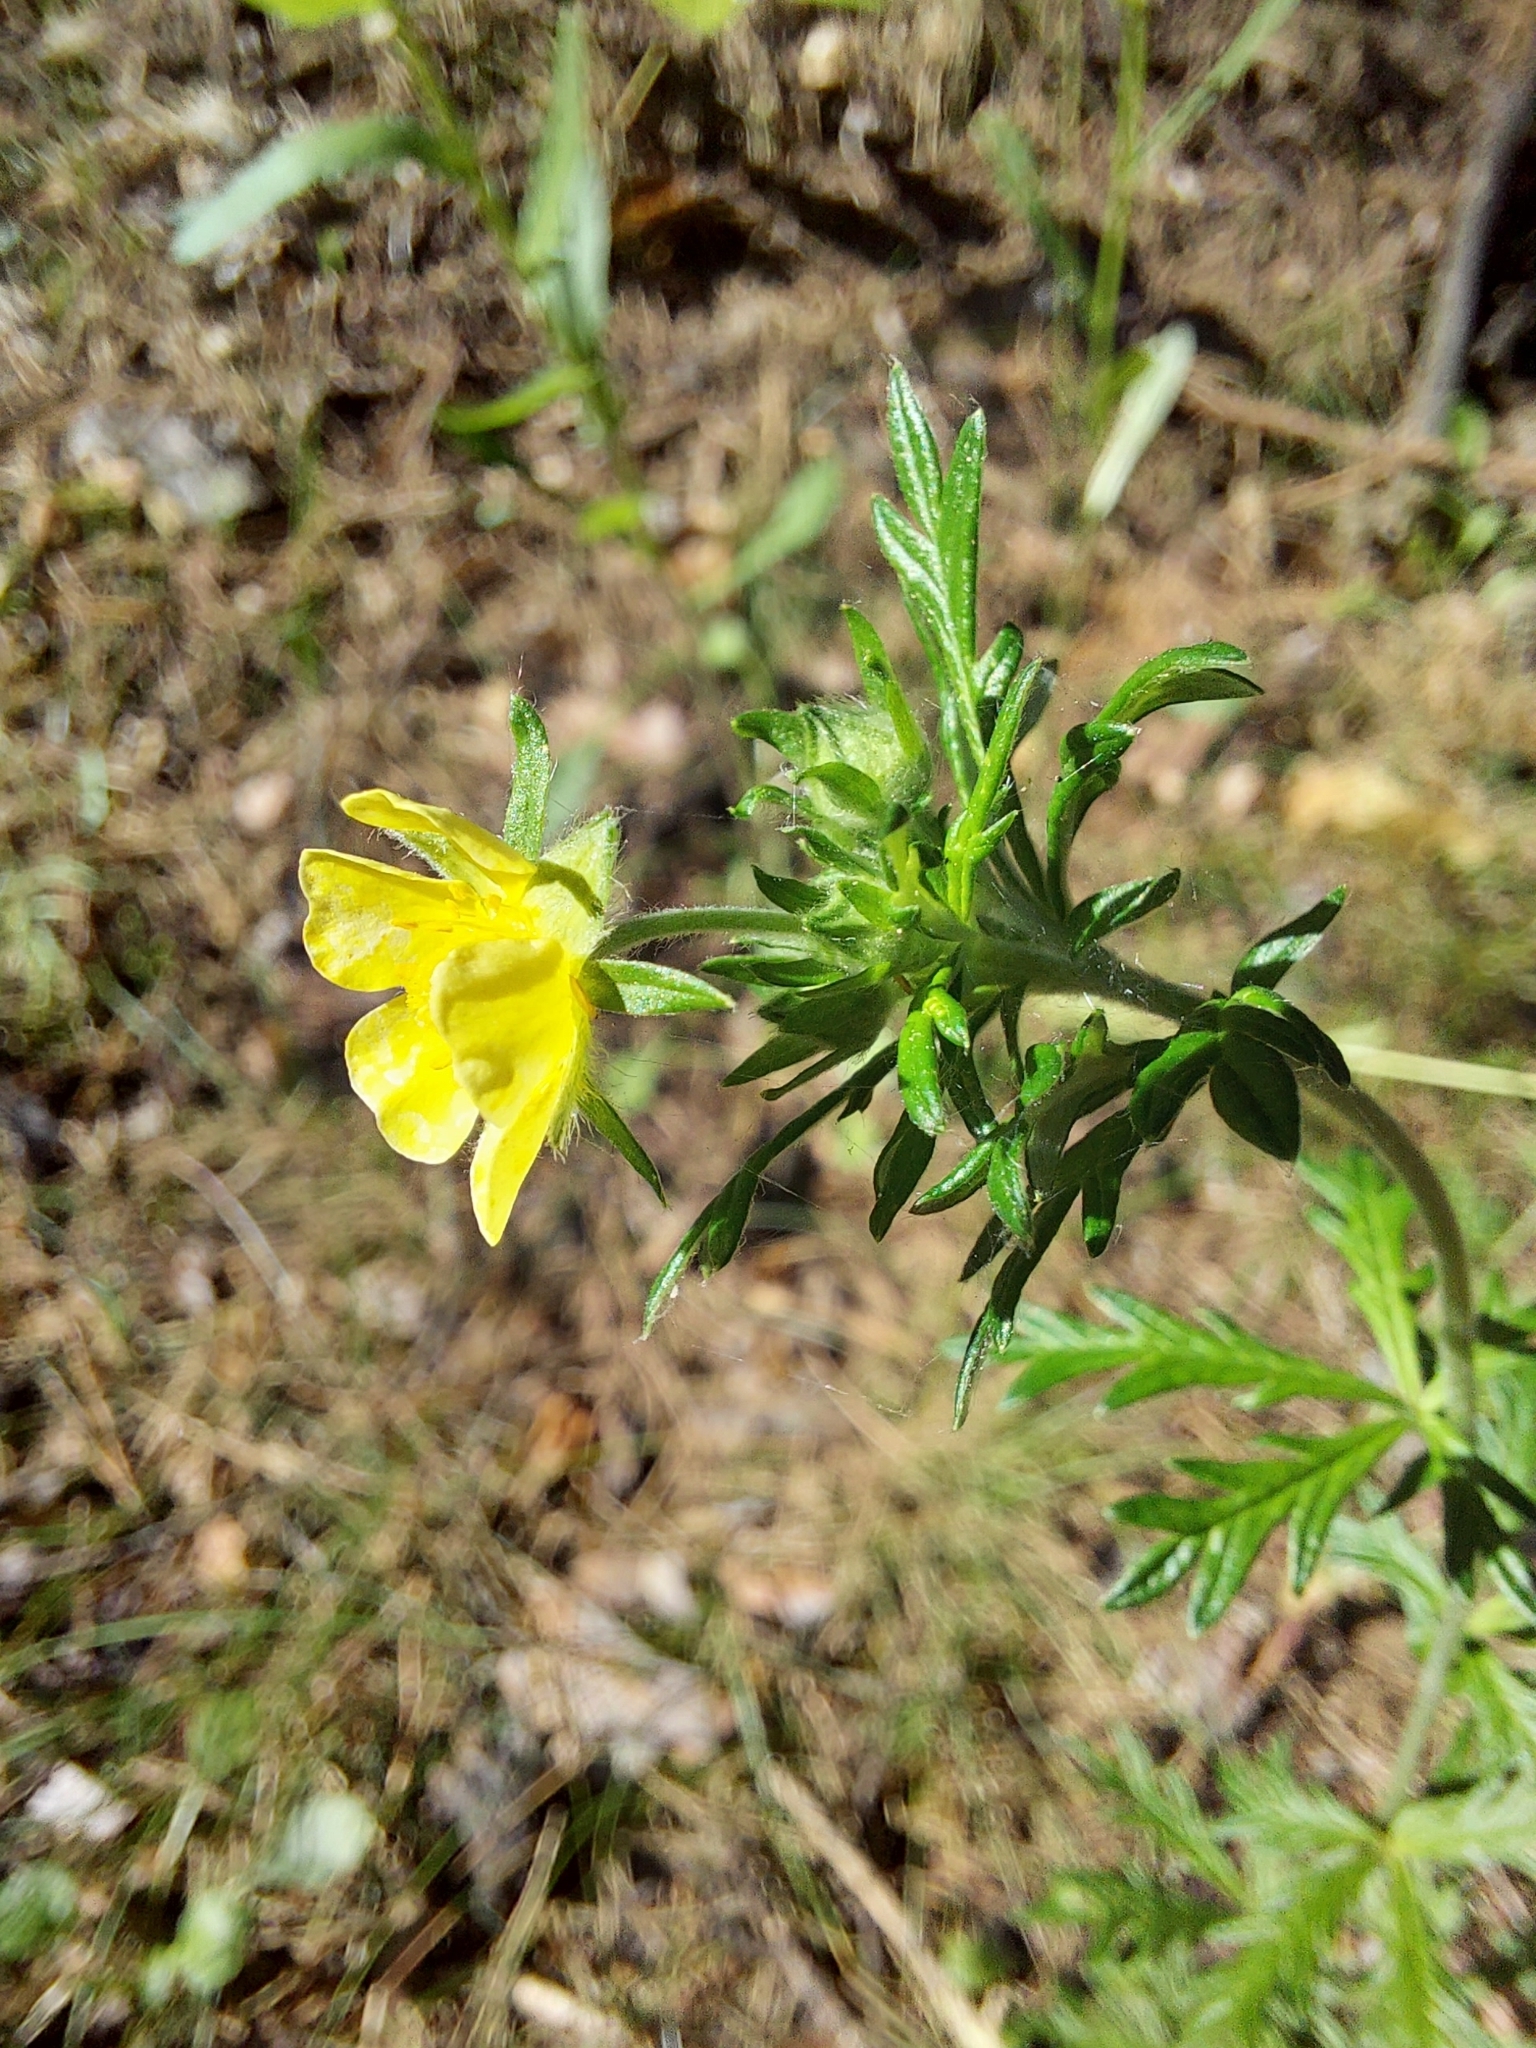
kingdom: Plantae
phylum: Tracheophyta
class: Magnoliopsida
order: Rosales
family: Rosaceae
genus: Potentilla
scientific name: Potentilla argentea
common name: Hoary cinquefoil
